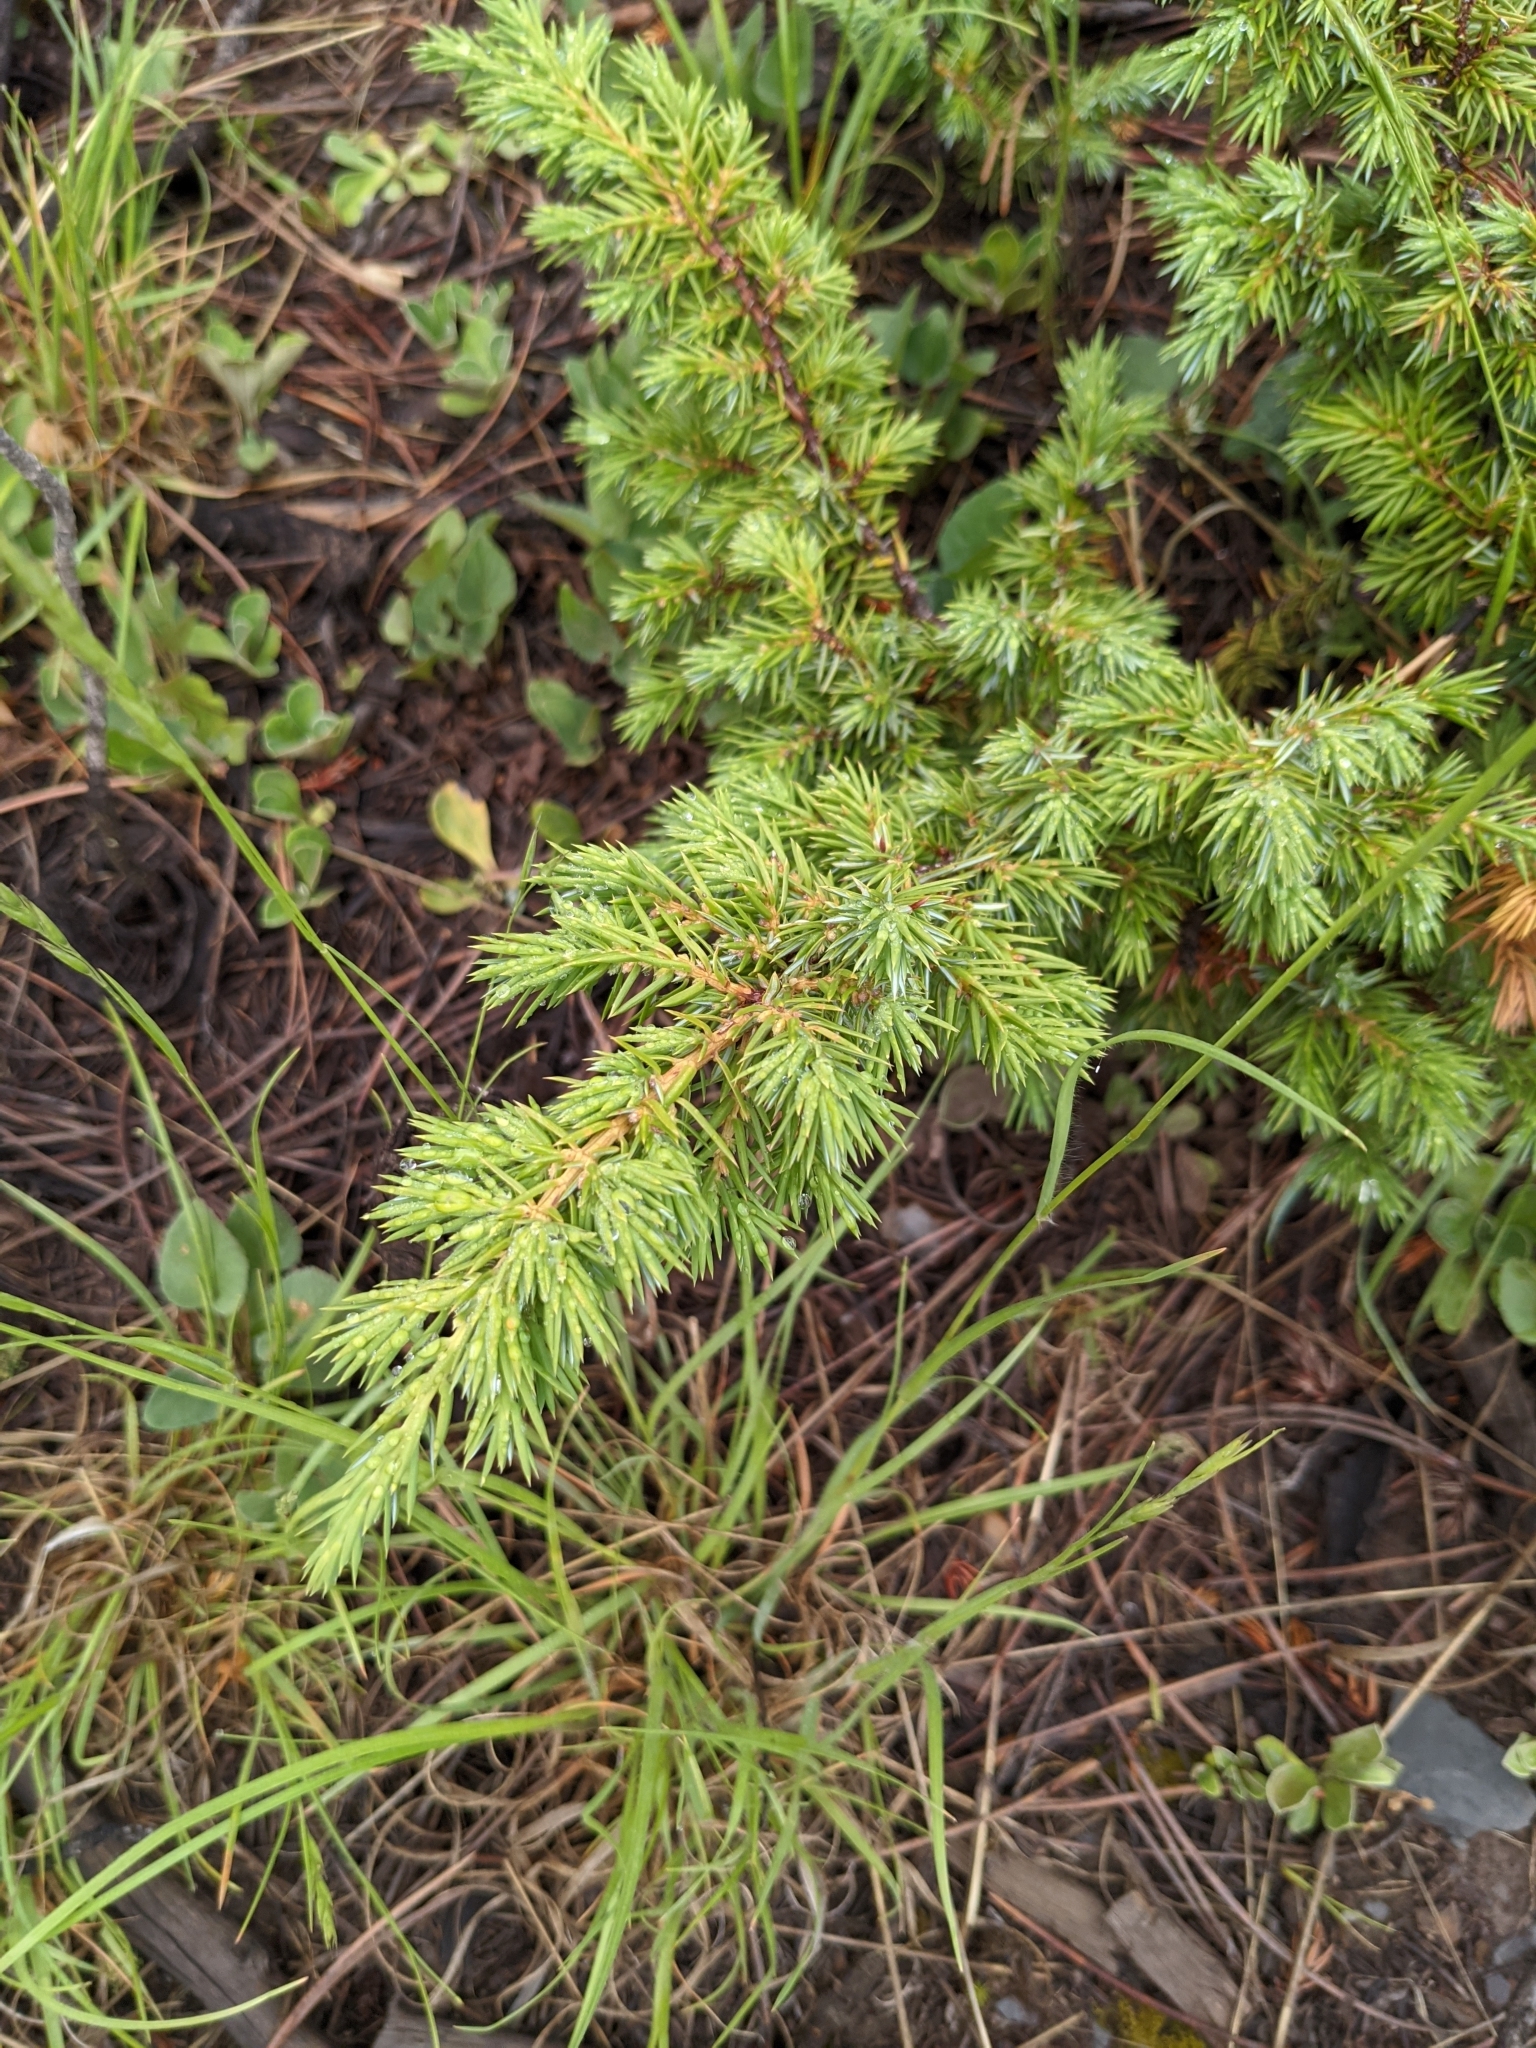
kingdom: Plantae
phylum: Tracheophyta
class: Pinopsida
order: Pinales
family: Cupressaceae
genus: Juniperus
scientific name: Juniperus communis
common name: Common juniper
